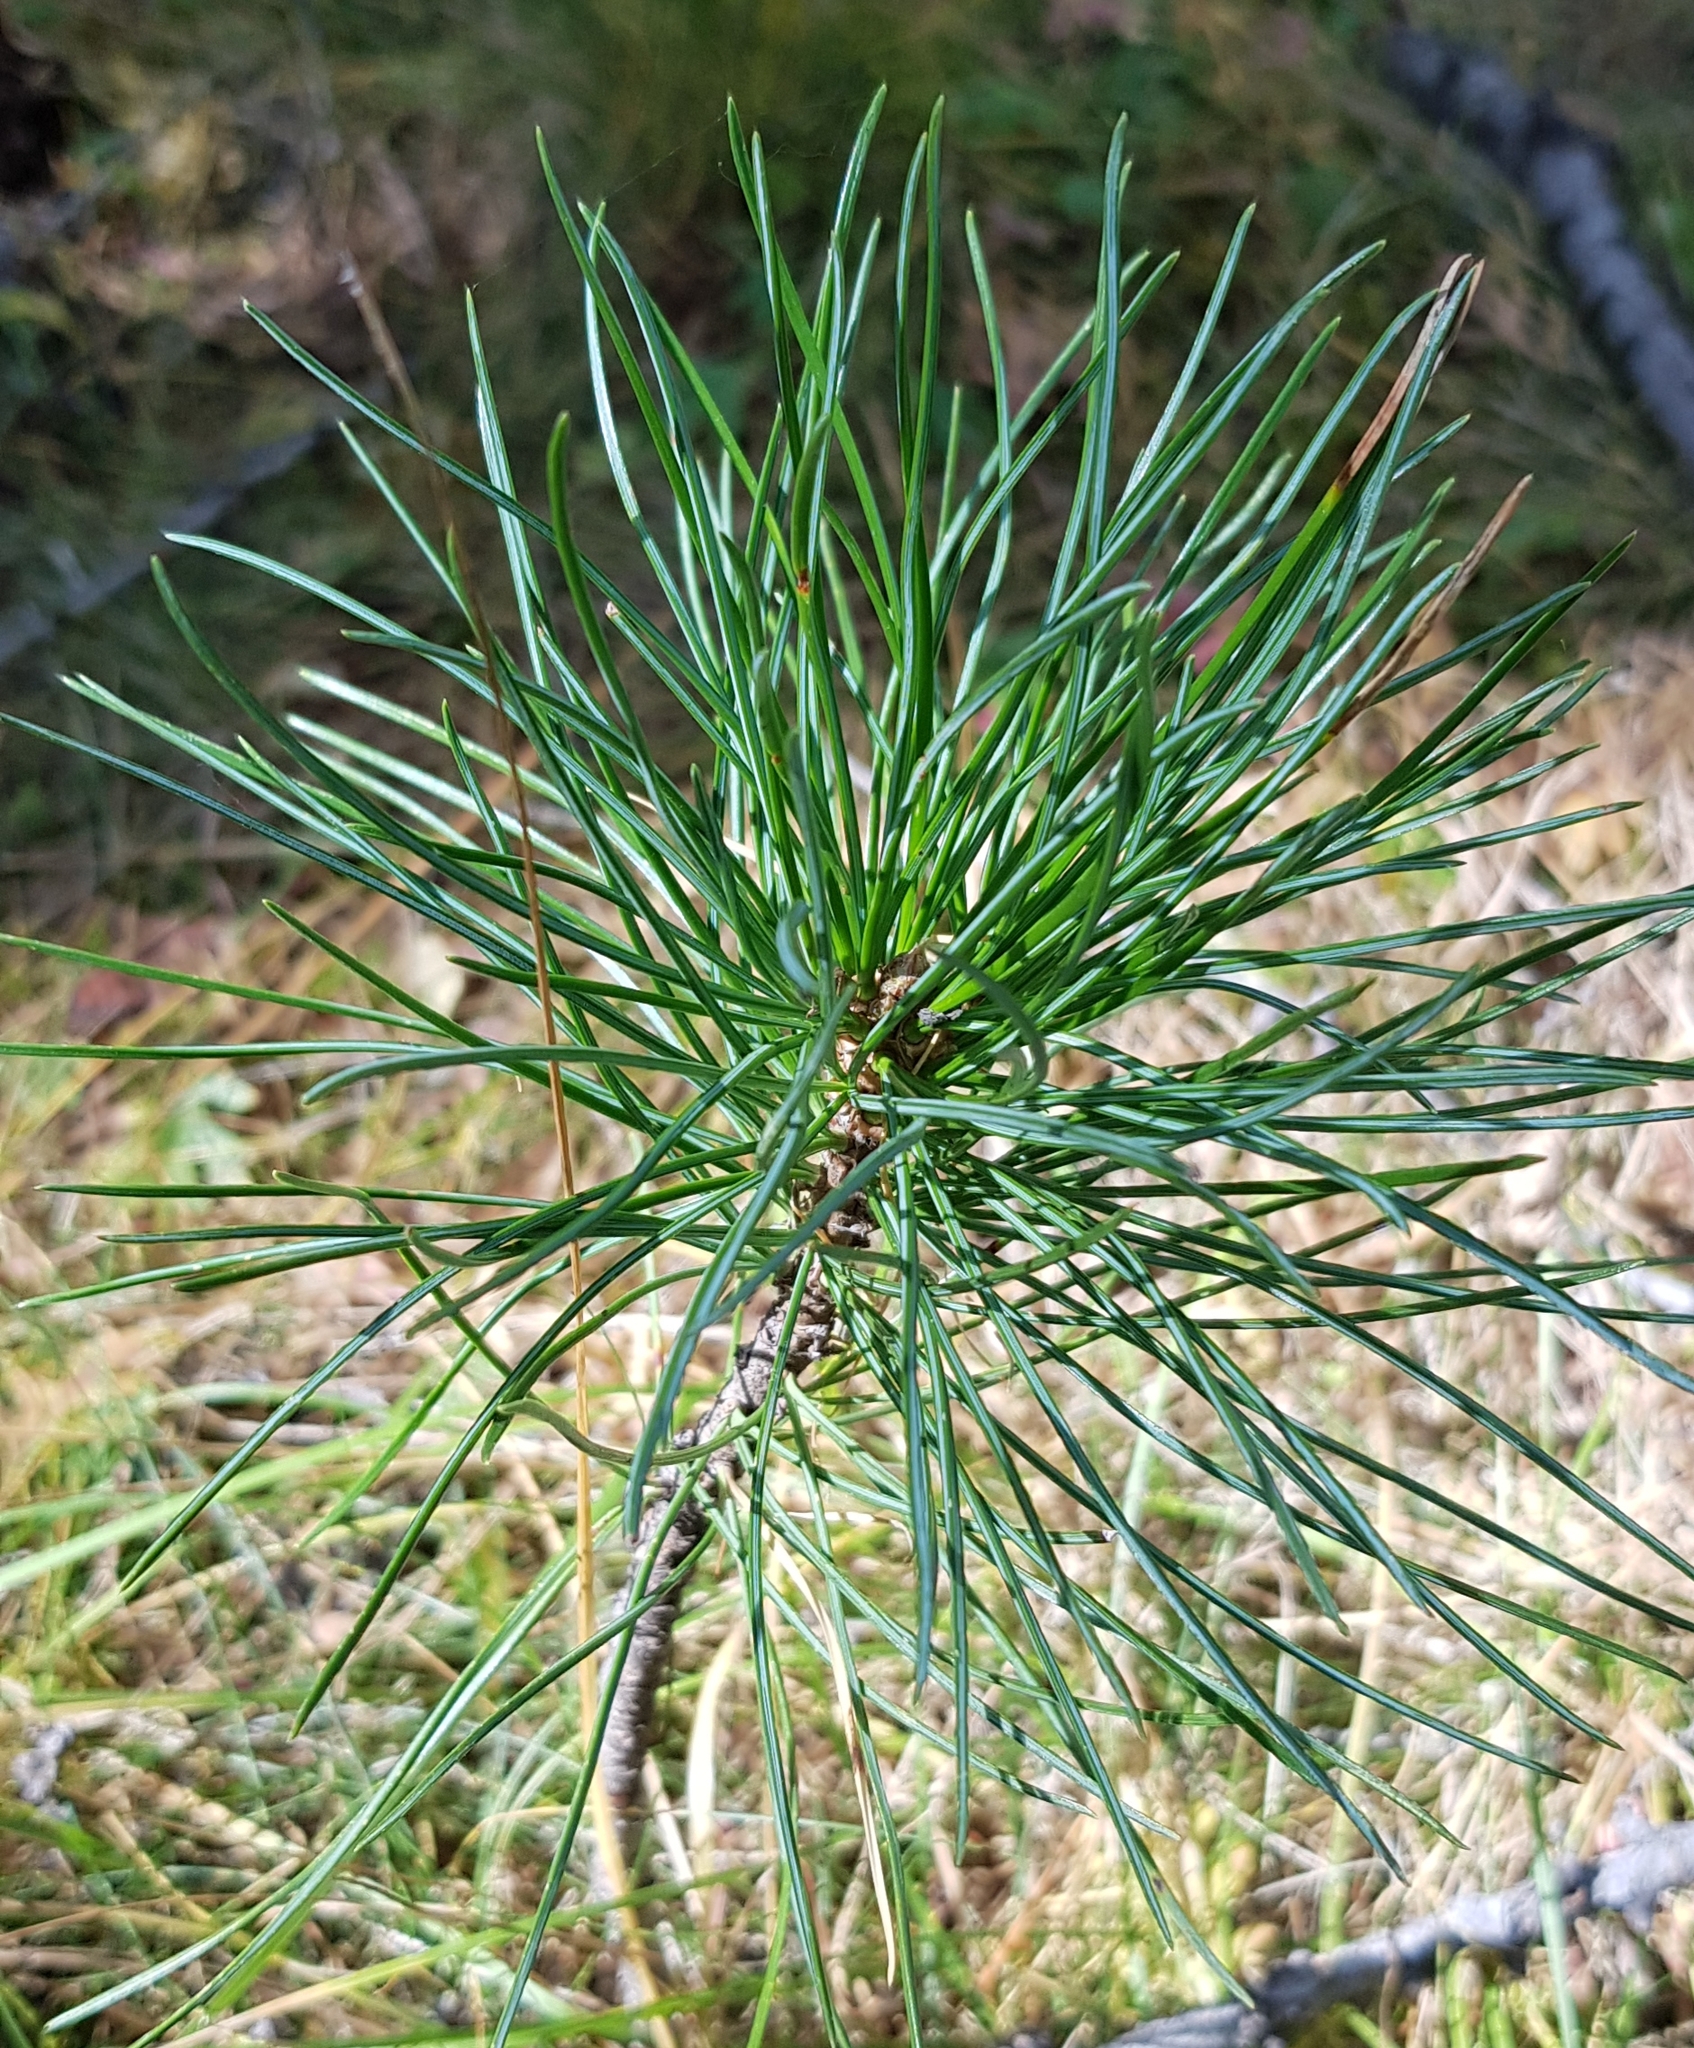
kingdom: Plantae
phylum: Tracheophyta
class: Pinopsida
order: Pinales
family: Pinaceae
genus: Pinus
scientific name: Pinus sylvestris
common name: Scots pine
